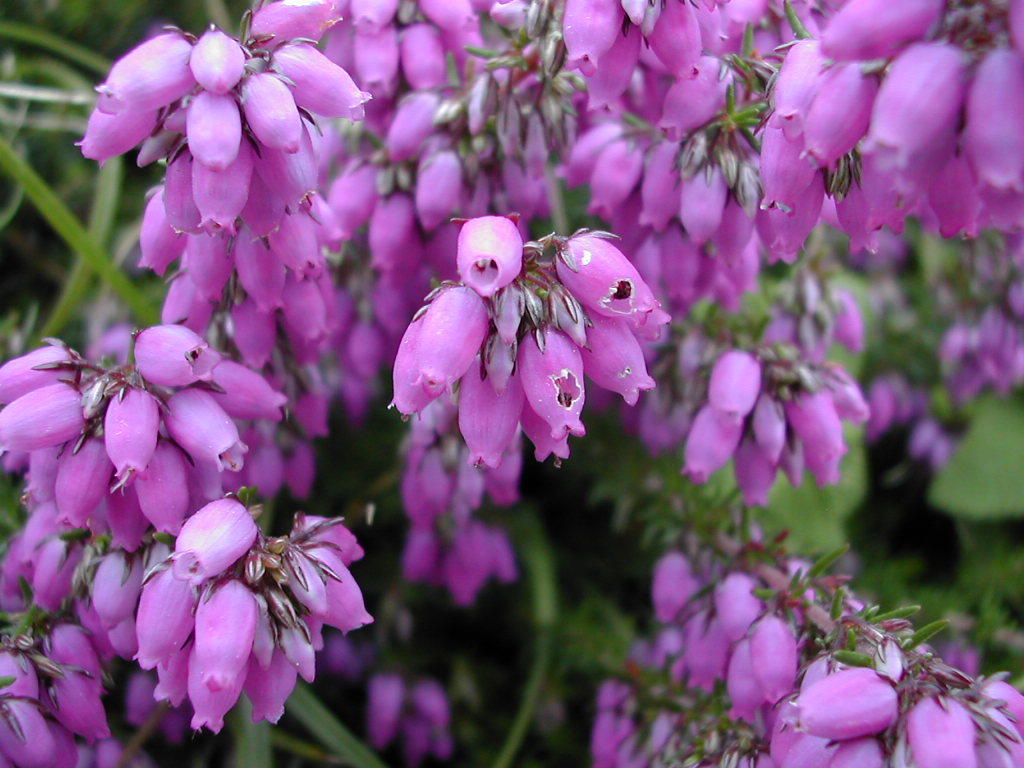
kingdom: Plantae
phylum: Tracheophyta
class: Magnoliopsida
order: Ericales
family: Ericaceae
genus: Erica
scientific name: Erica cinerea
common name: Bell heather
